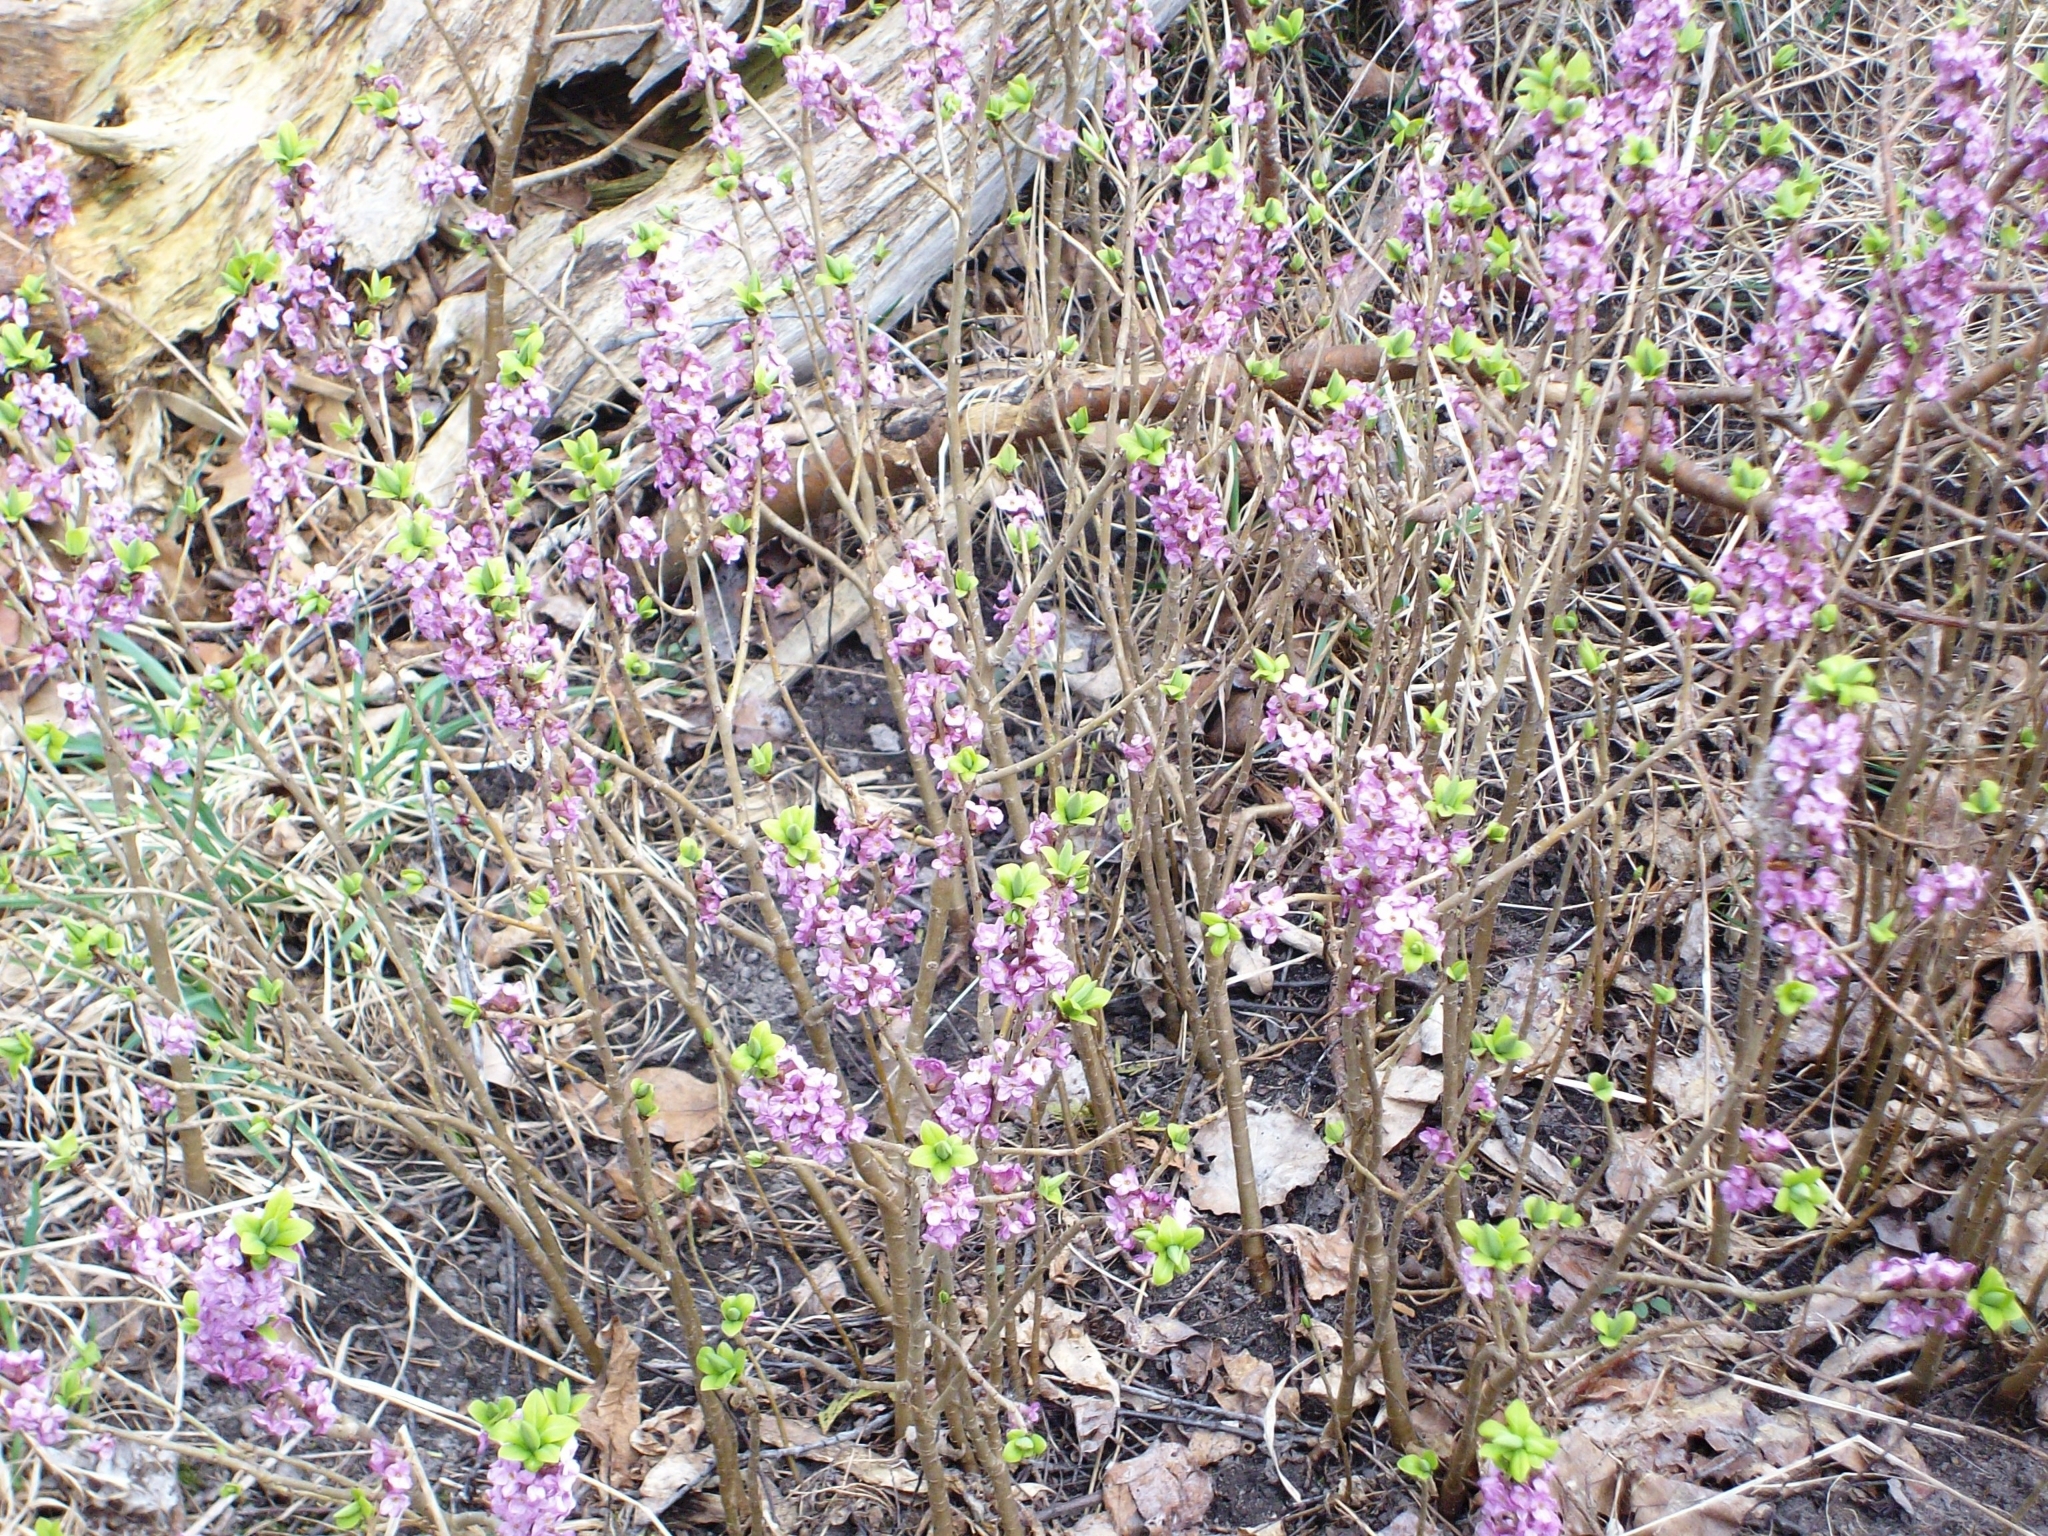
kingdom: Plantae
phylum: Tracheophyta
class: Magnoliopsida
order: Malvales
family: Thymelaeaceae
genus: Daphne
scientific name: Daphne mezereum
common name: Mezereon
